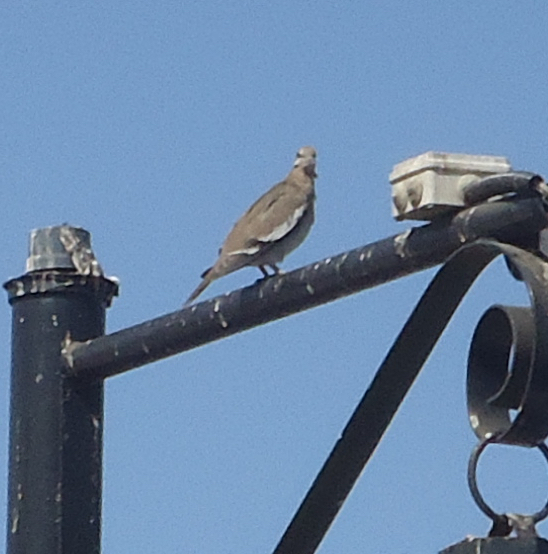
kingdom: Animalia
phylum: Chordata
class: Aves
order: Columbiformes
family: Columbidae
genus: Zenaida
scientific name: Zenaida asiatica
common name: White-winged dove
